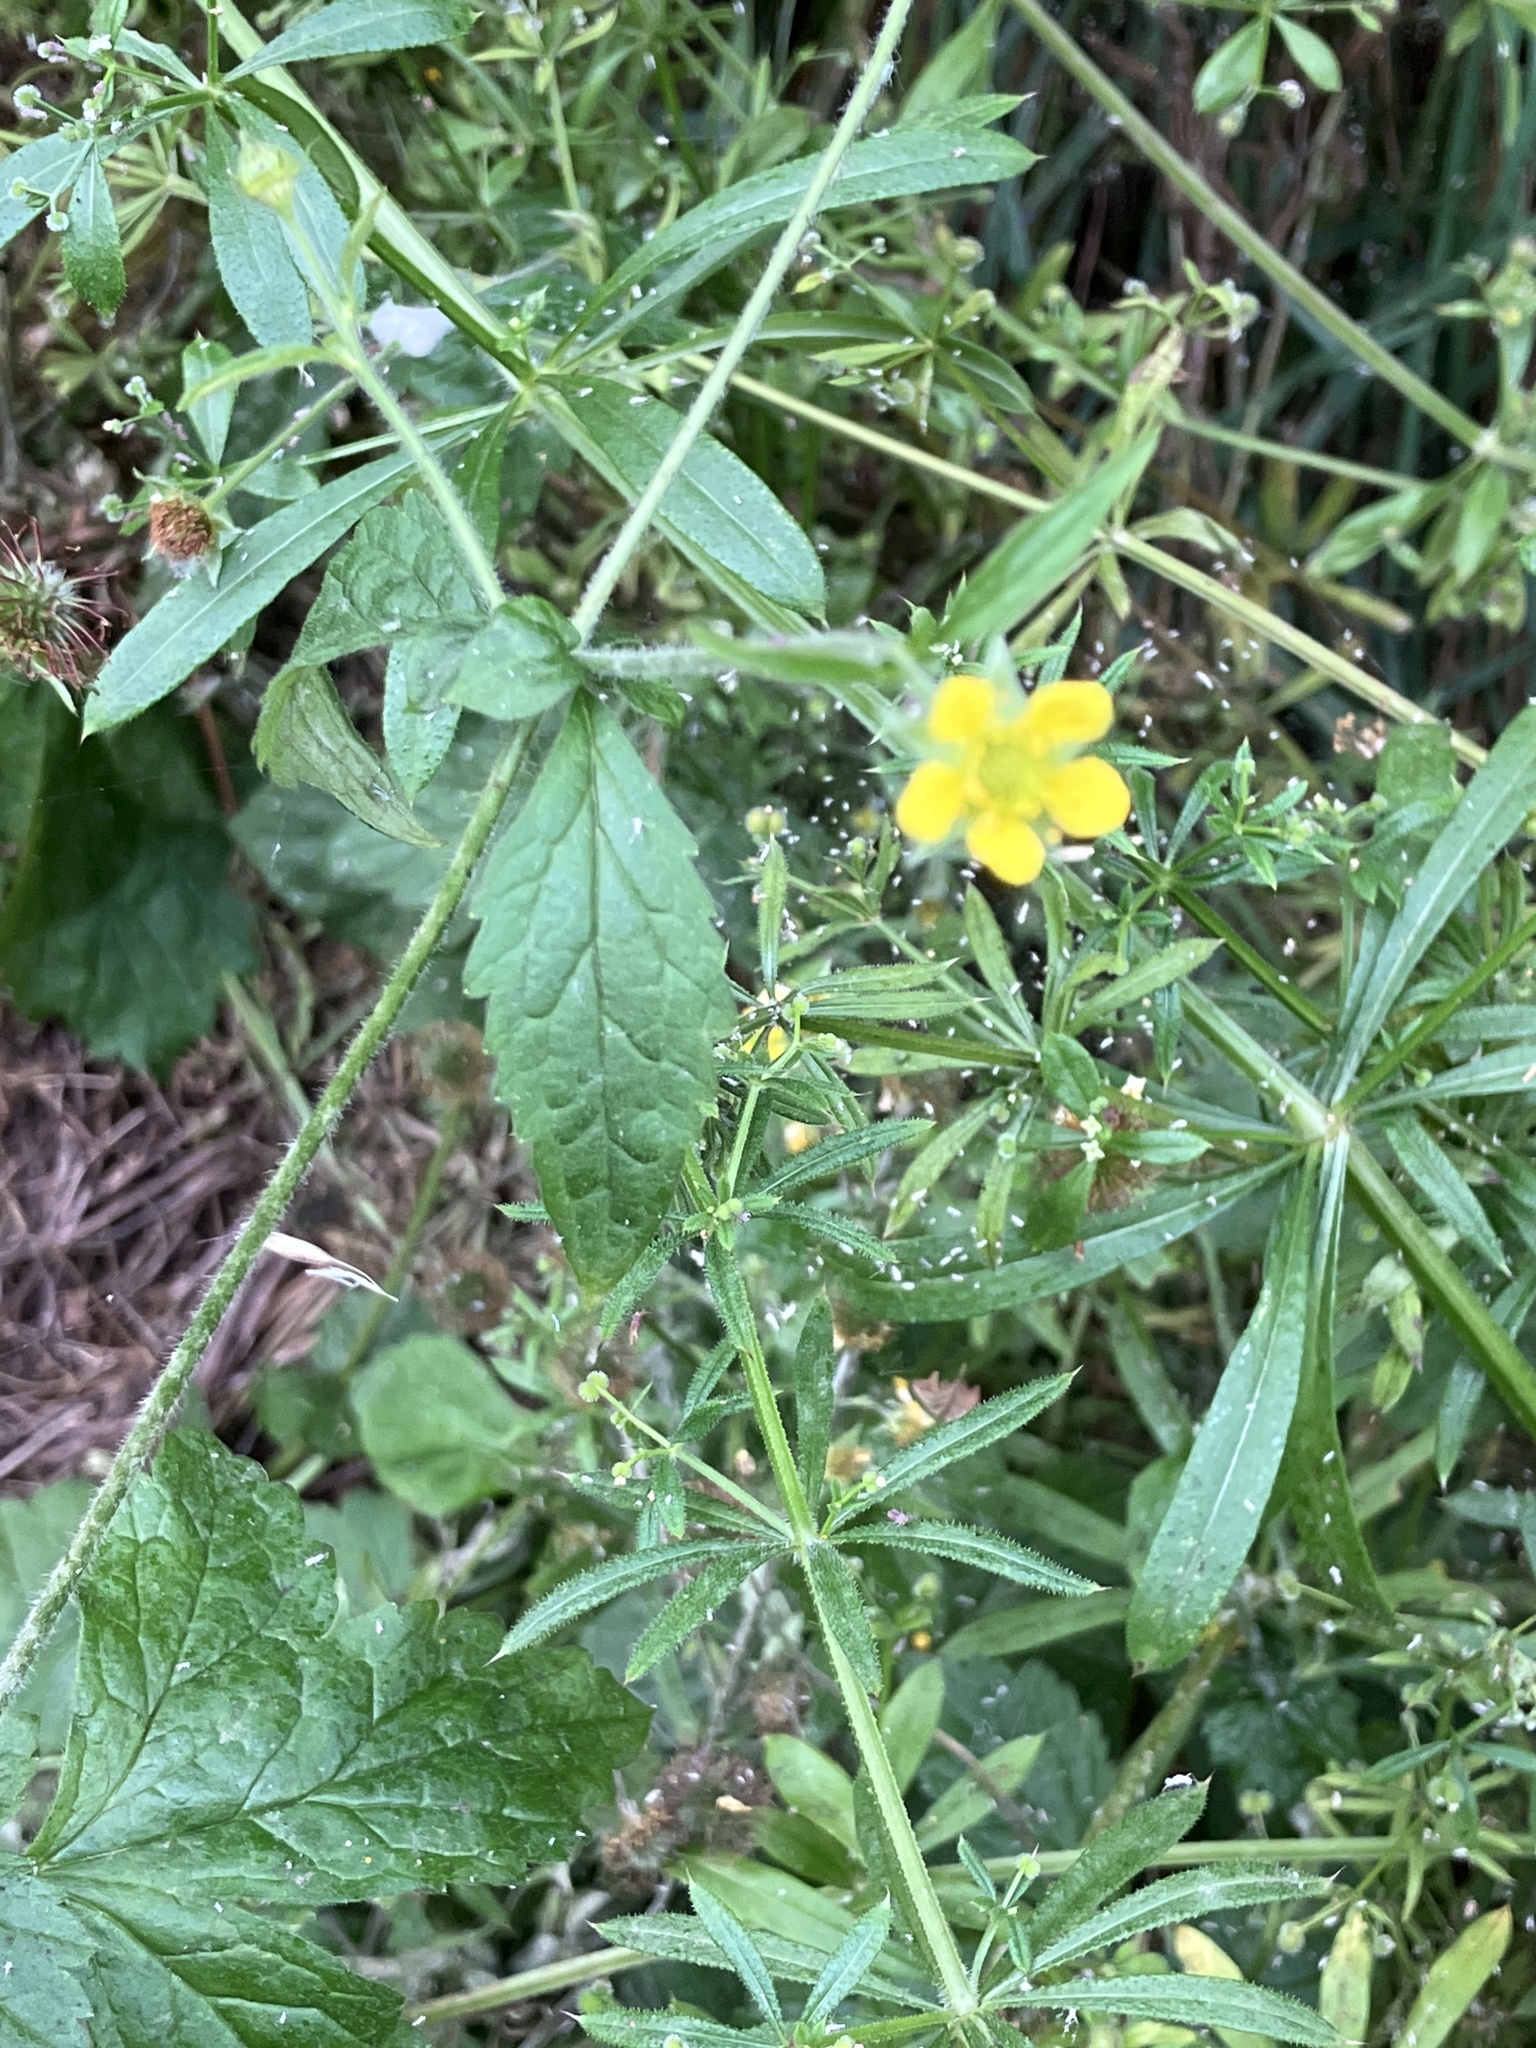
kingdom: Plantae
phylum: Tracheophyta
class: Magnoliopsida
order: Rosales
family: Rosaceae
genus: Geum
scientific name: Geum urbanum
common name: Wood avens
